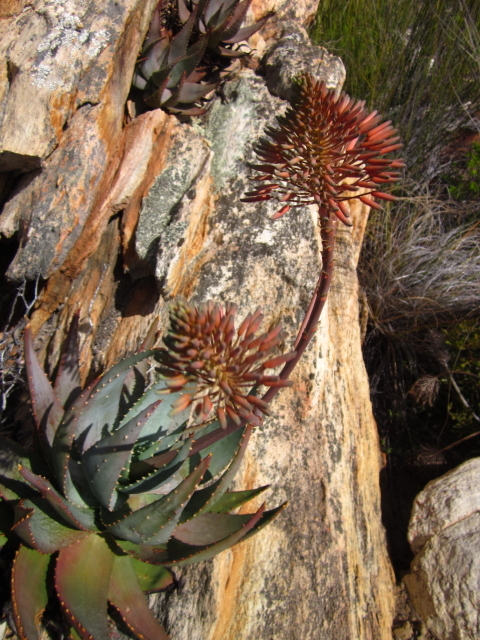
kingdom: Plantae
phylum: Tracheophyta
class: Liliopsida
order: Asparagales
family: Asphodelaceae
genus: Aloe
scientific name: Aloe comptonii
